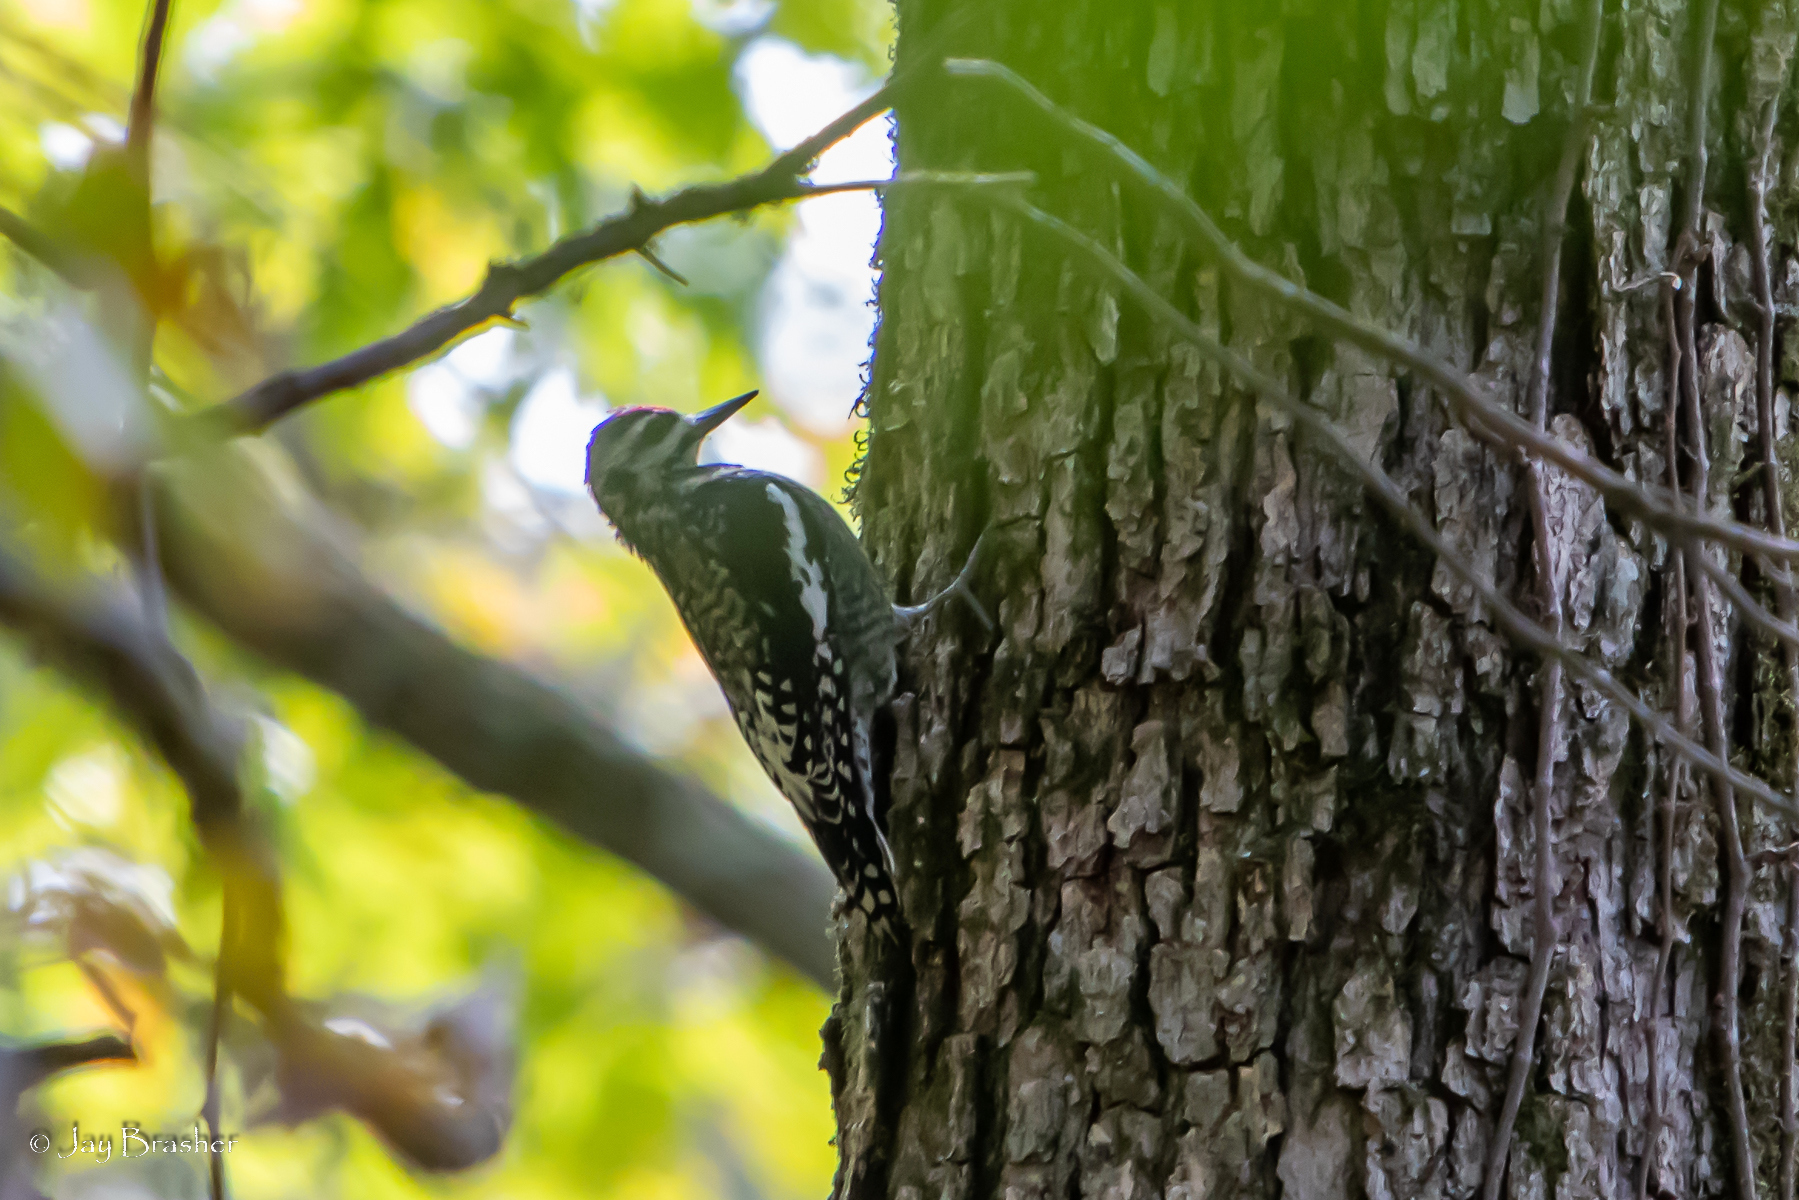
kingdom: Animalia
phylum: Chordata
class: Aves
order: Piciformes
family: Picidae
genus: Sphyrapicus
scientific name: Sphyrapicus varius
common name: Yellow-bellied sapsucker
